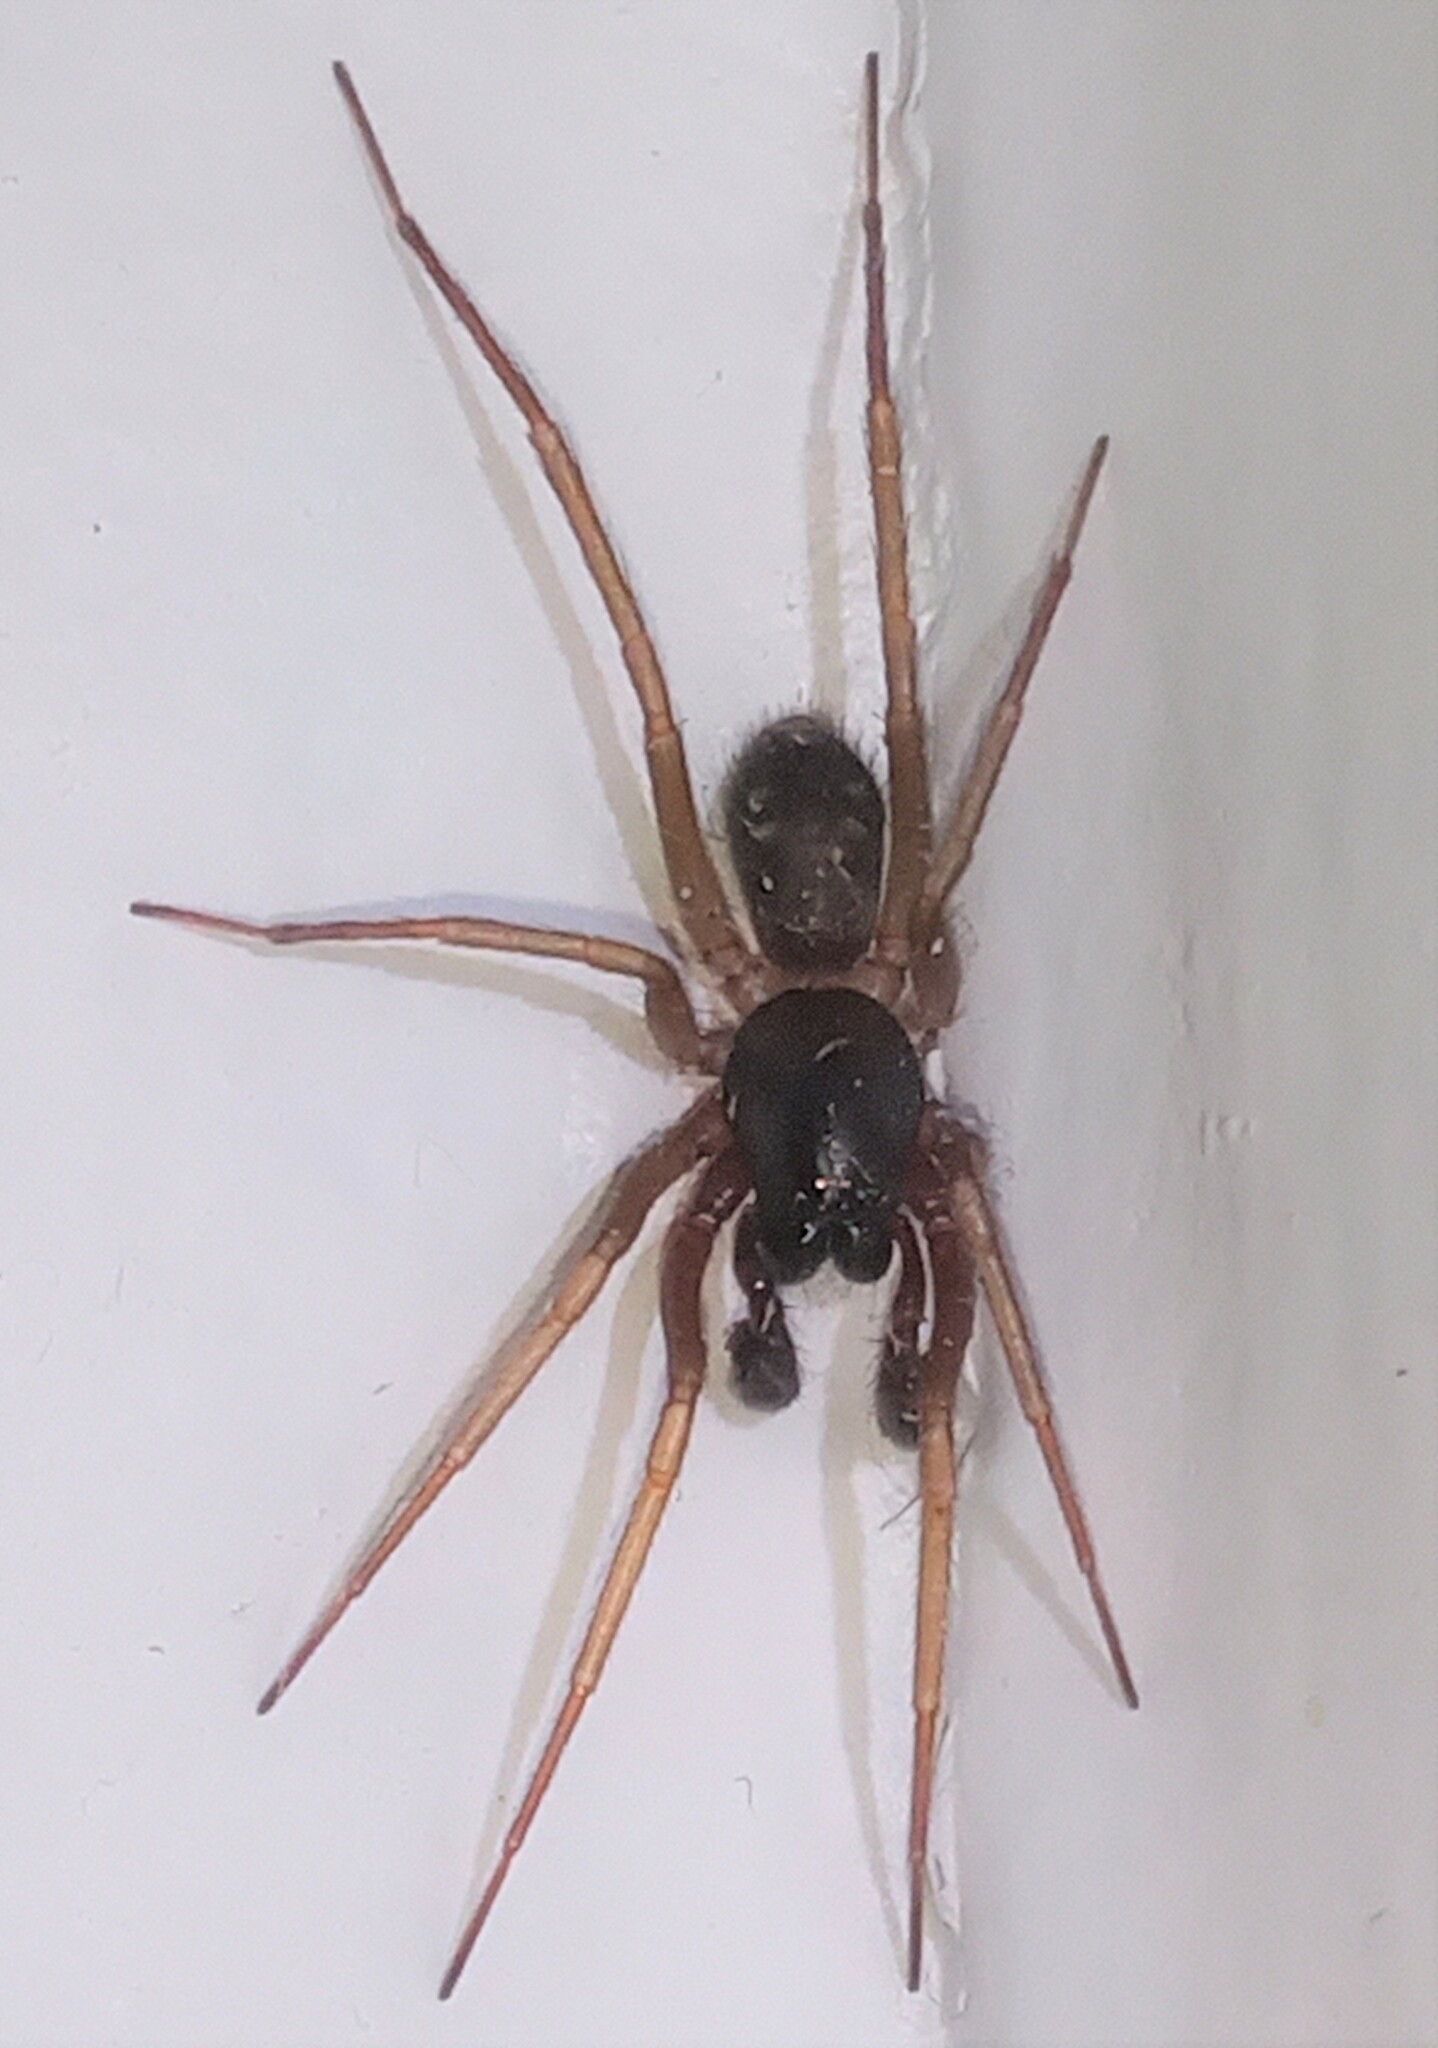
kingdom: Animalia
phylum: Arthropoda
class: Arachnida
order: Araneae
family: Corinnidae
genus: Falconina
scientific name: Falconina gracilis
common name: Antmimic spider
